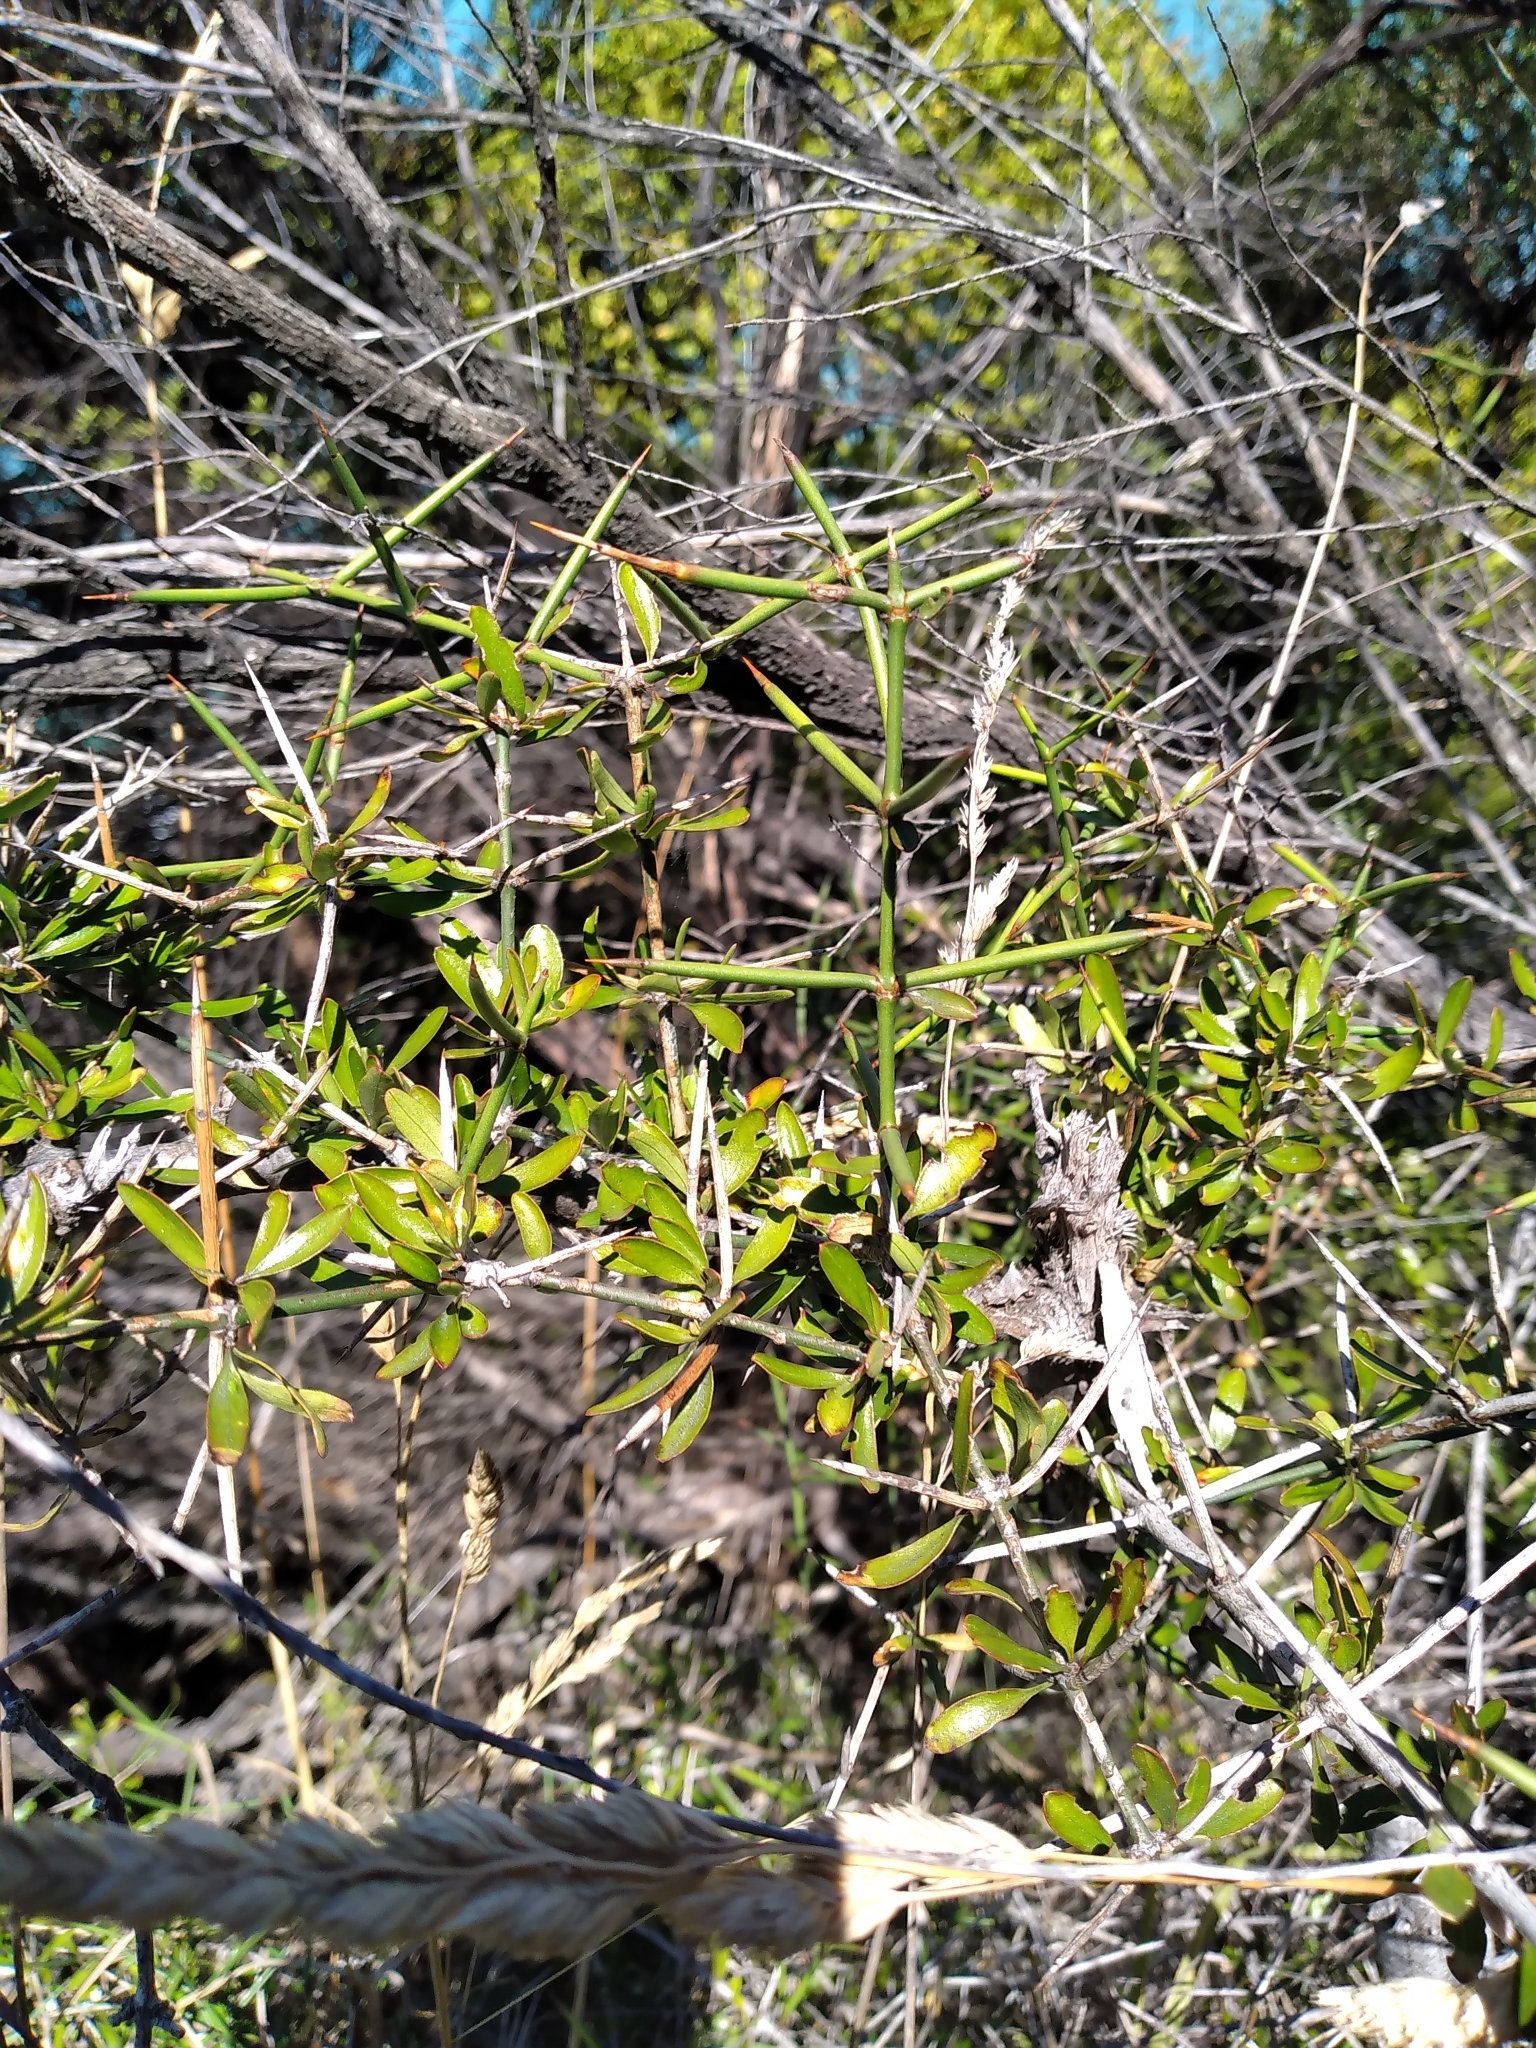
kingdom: Plantae
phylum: Tracheophyta
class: Magnoliopsida
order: Rosales
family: Rhamnaceae
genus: Discaria
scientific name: Discaria toumatou
